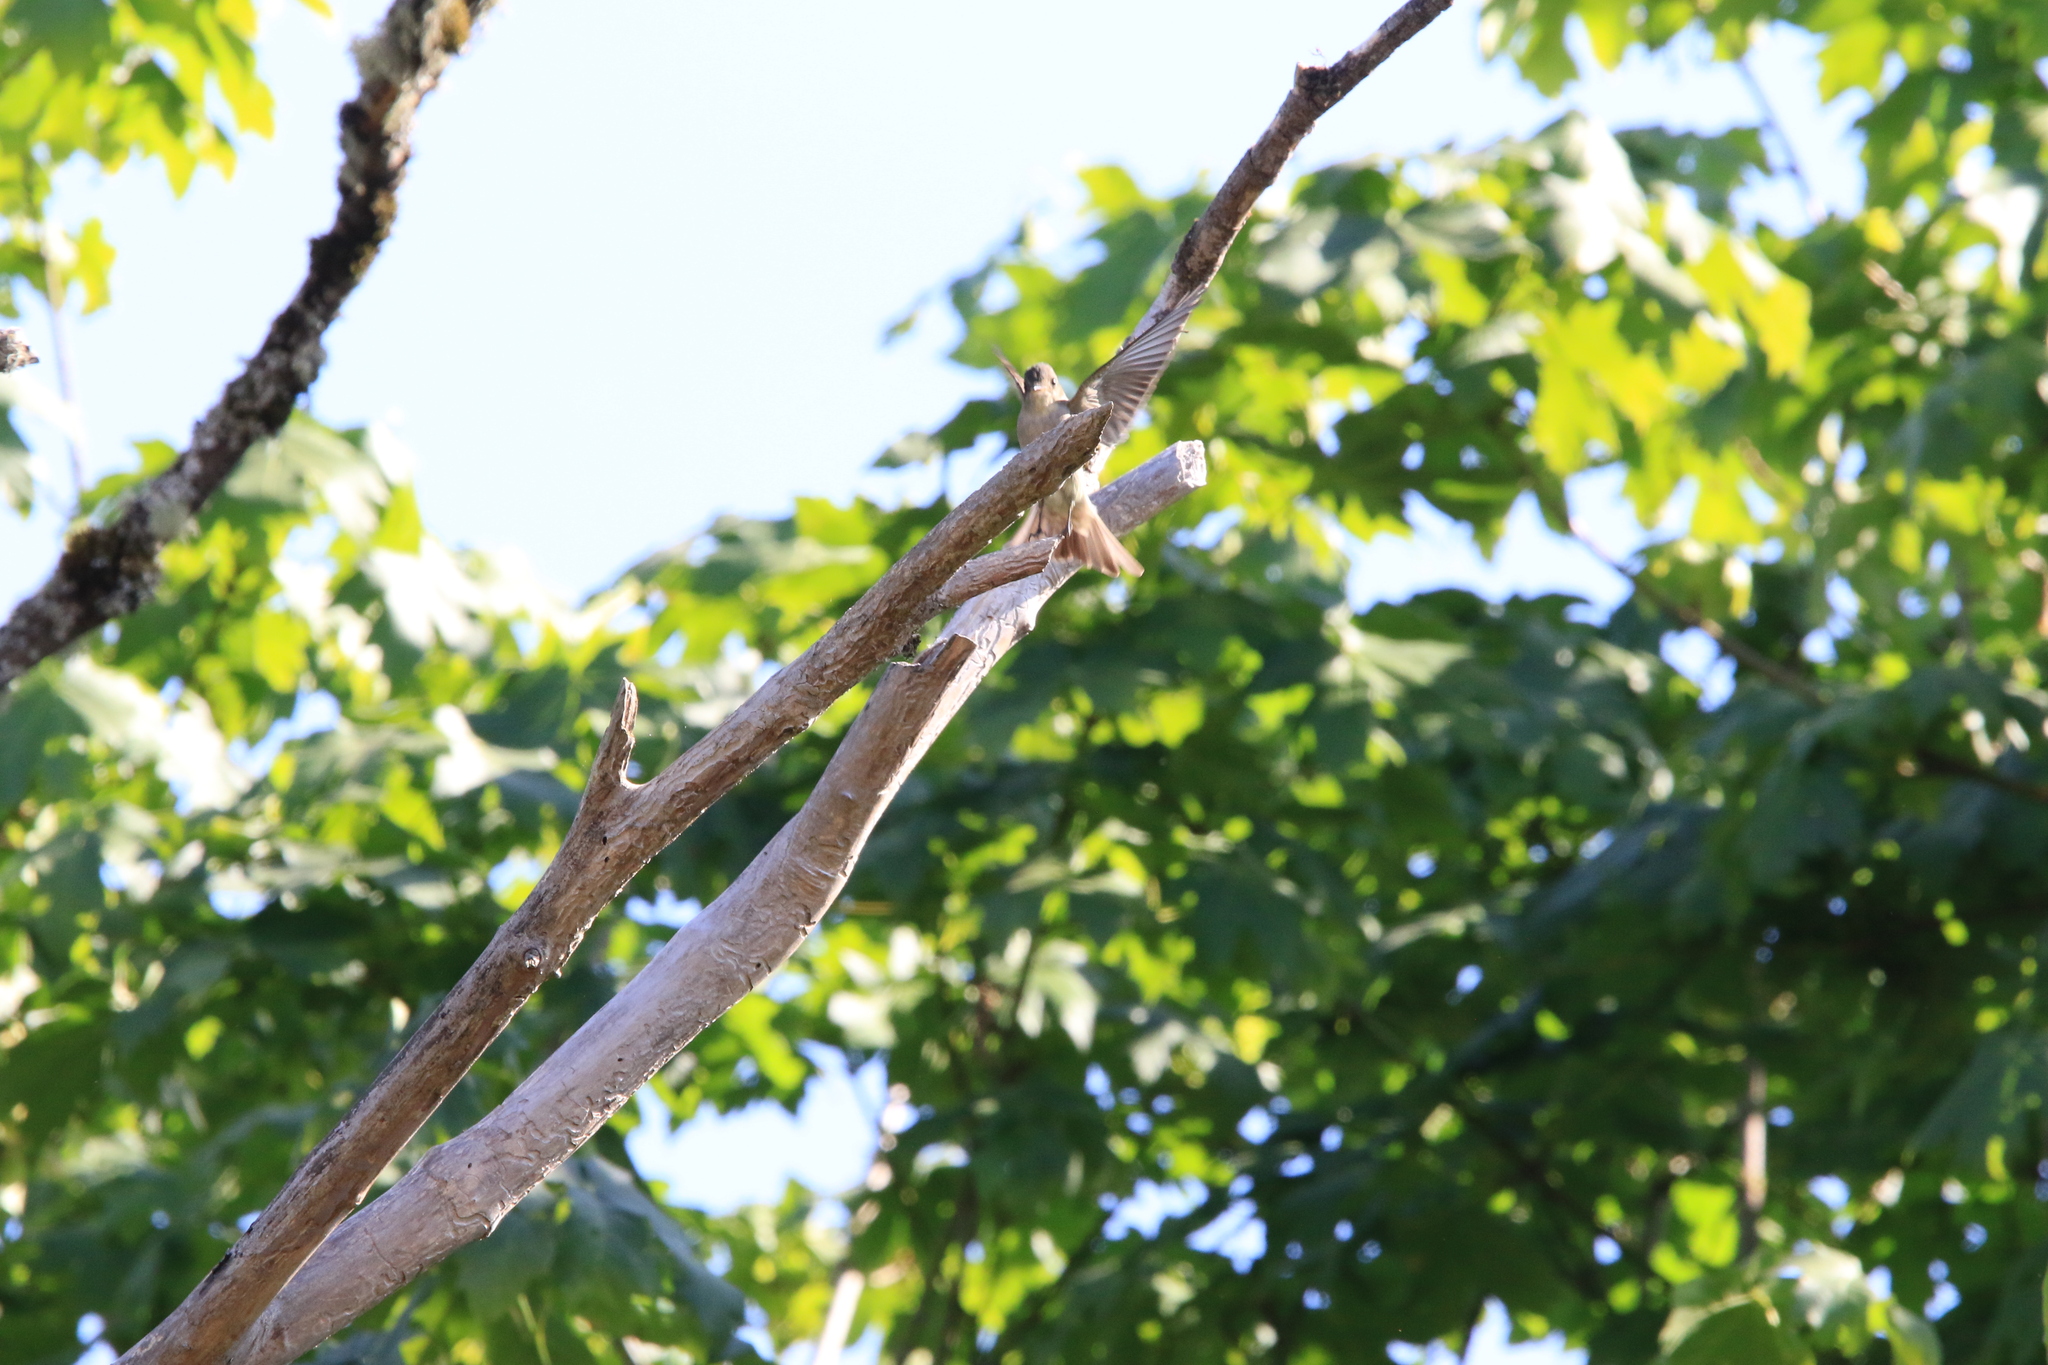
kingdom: Animalia
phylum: Chordata
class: Aves
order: Passeriformes
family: Tyrannidae
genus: Contopus
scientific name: Contopus sordidulus
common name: Western wood-pewee
